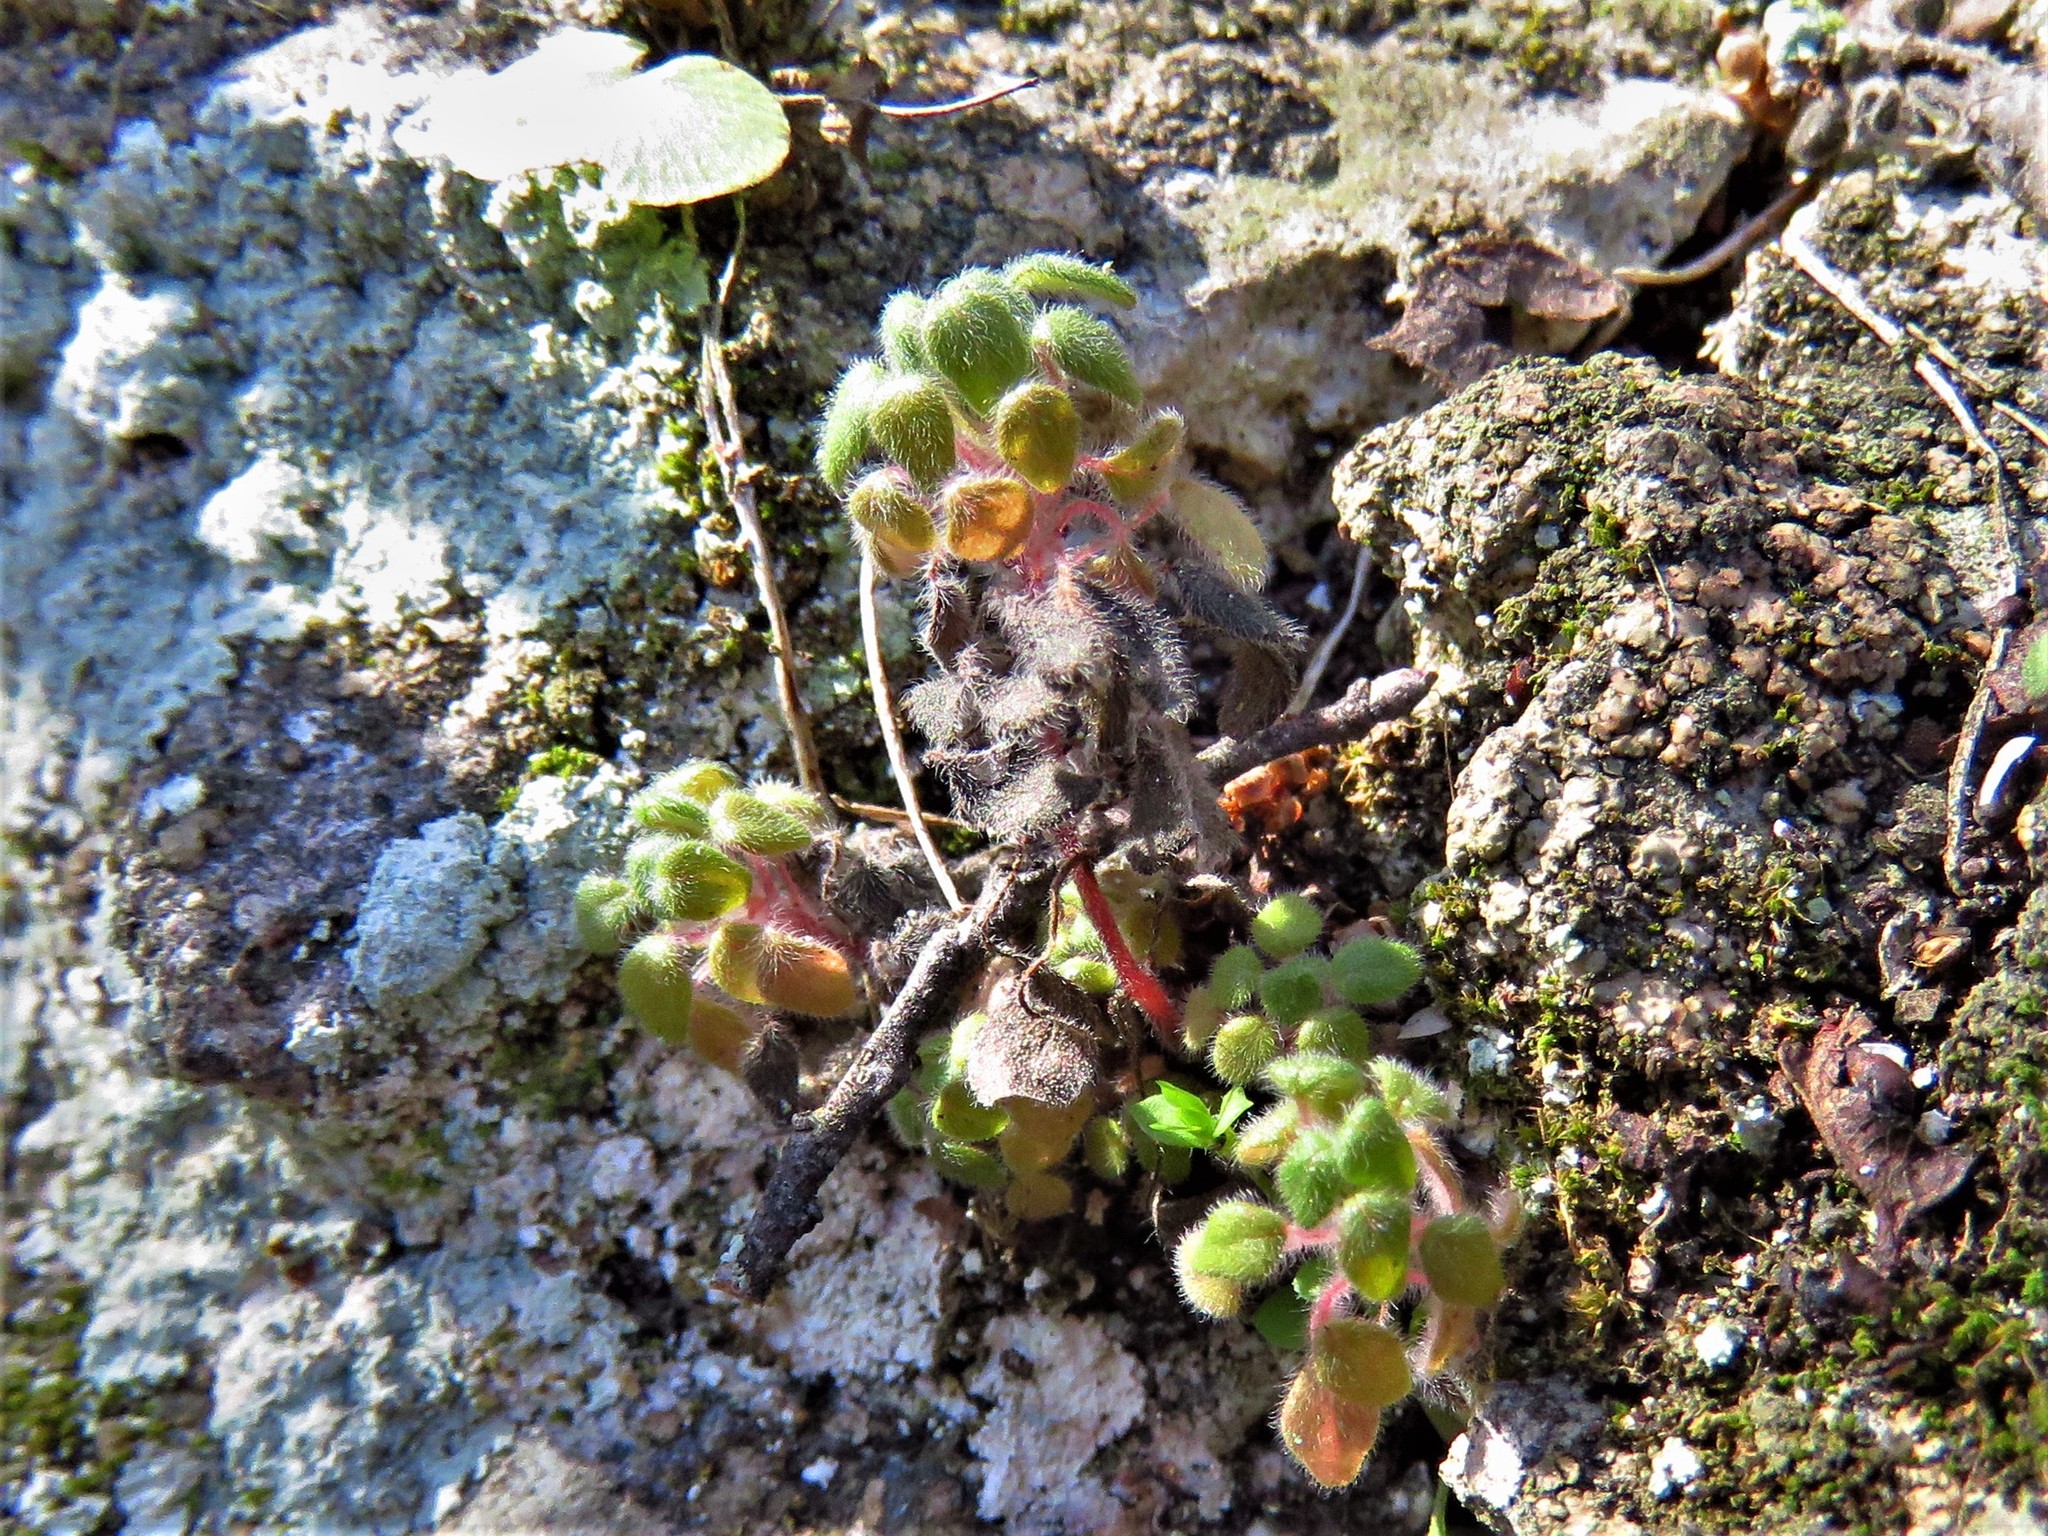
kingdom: Plantae
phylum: Tracheophyta
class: Magnoliopsida
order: Rosales
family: Urticaceae
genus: Parietaria
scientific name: Parietaria pensylvanica
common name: Pennsylvania pellitory
